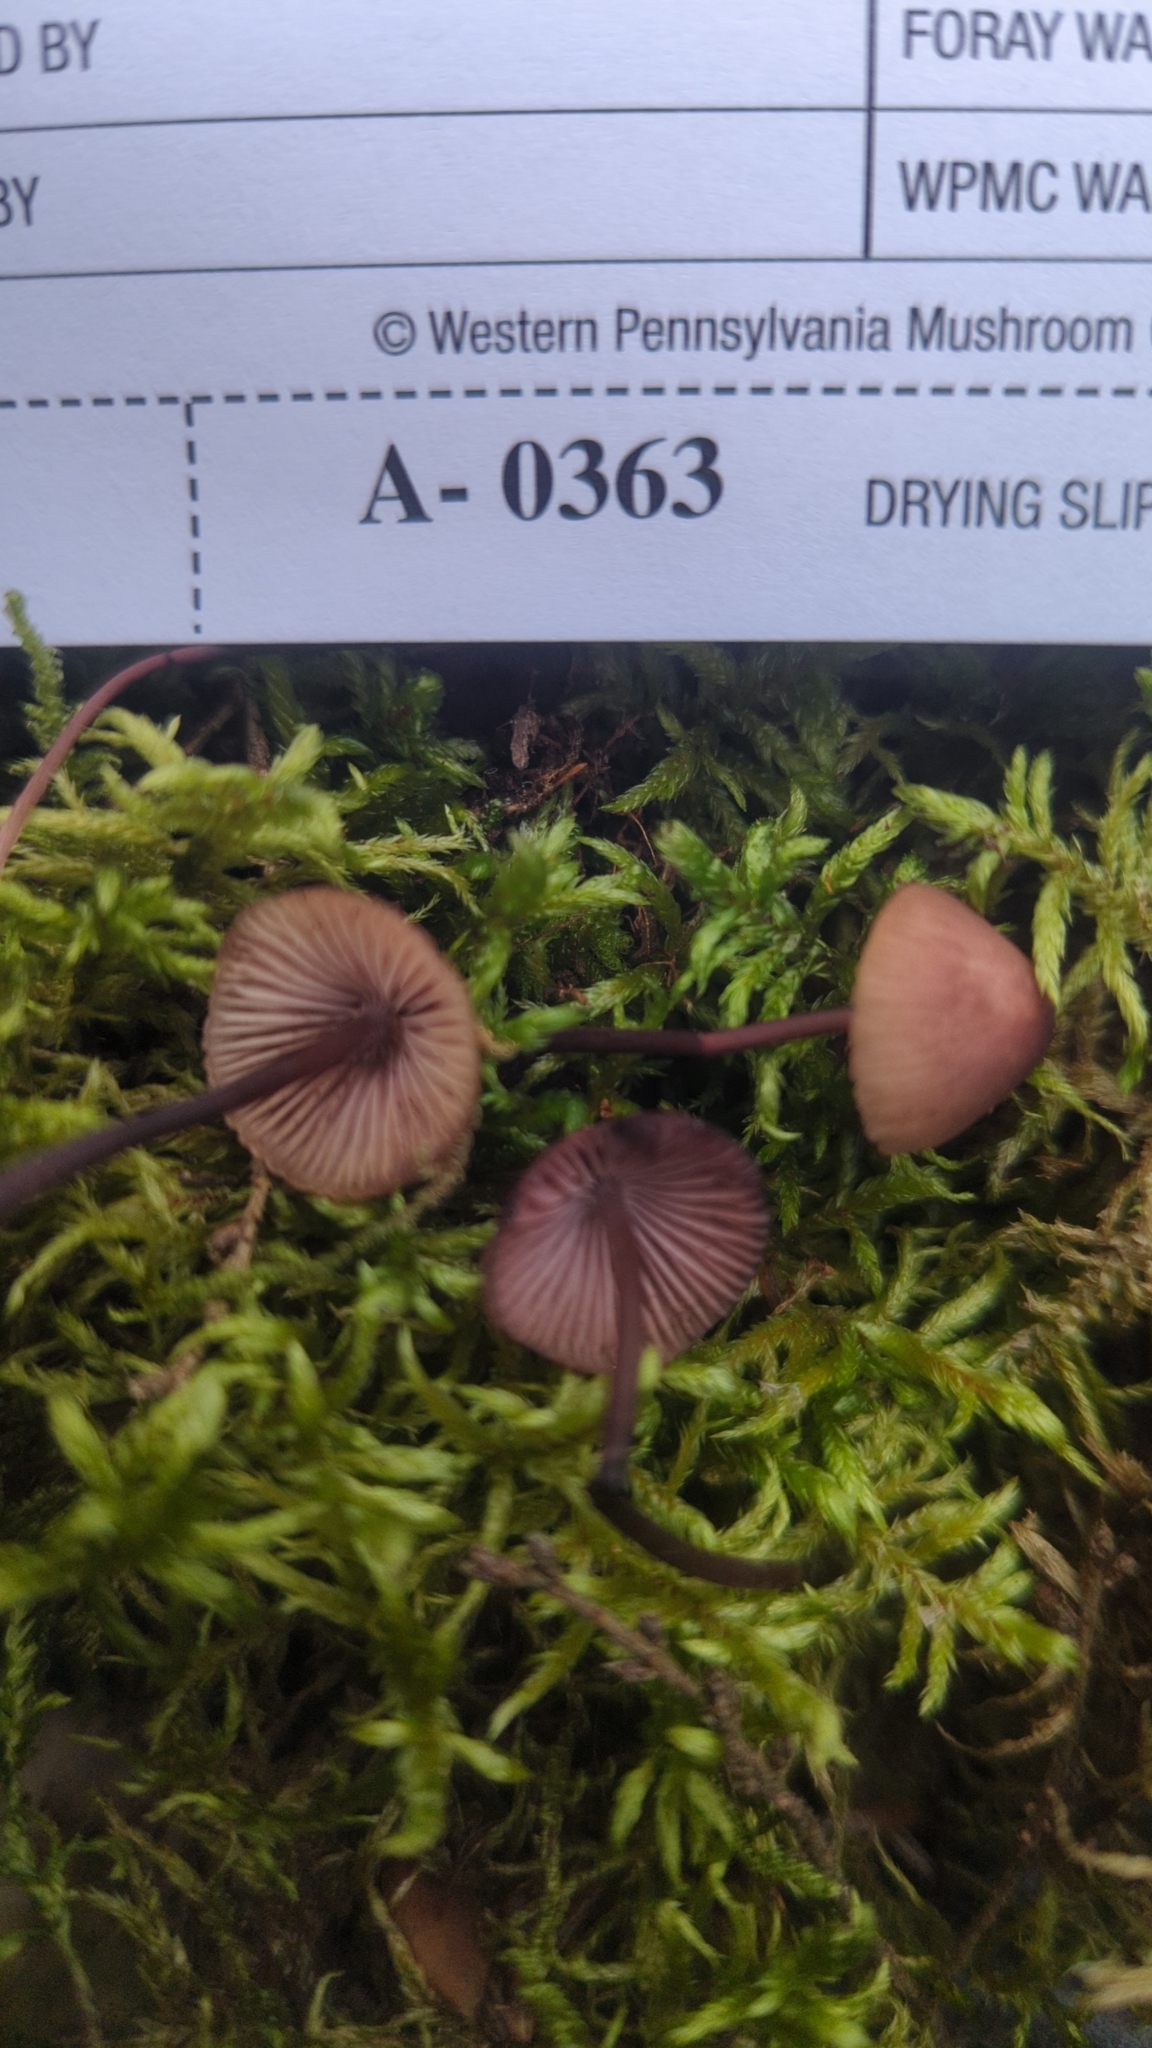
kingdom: Fungi
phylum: Basidiomycota
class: Agaricomycetes
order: Agaricales
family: Mycenaceae
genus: Mycena
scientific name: Mycena haematopus
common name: Burgundydrop bonnet
